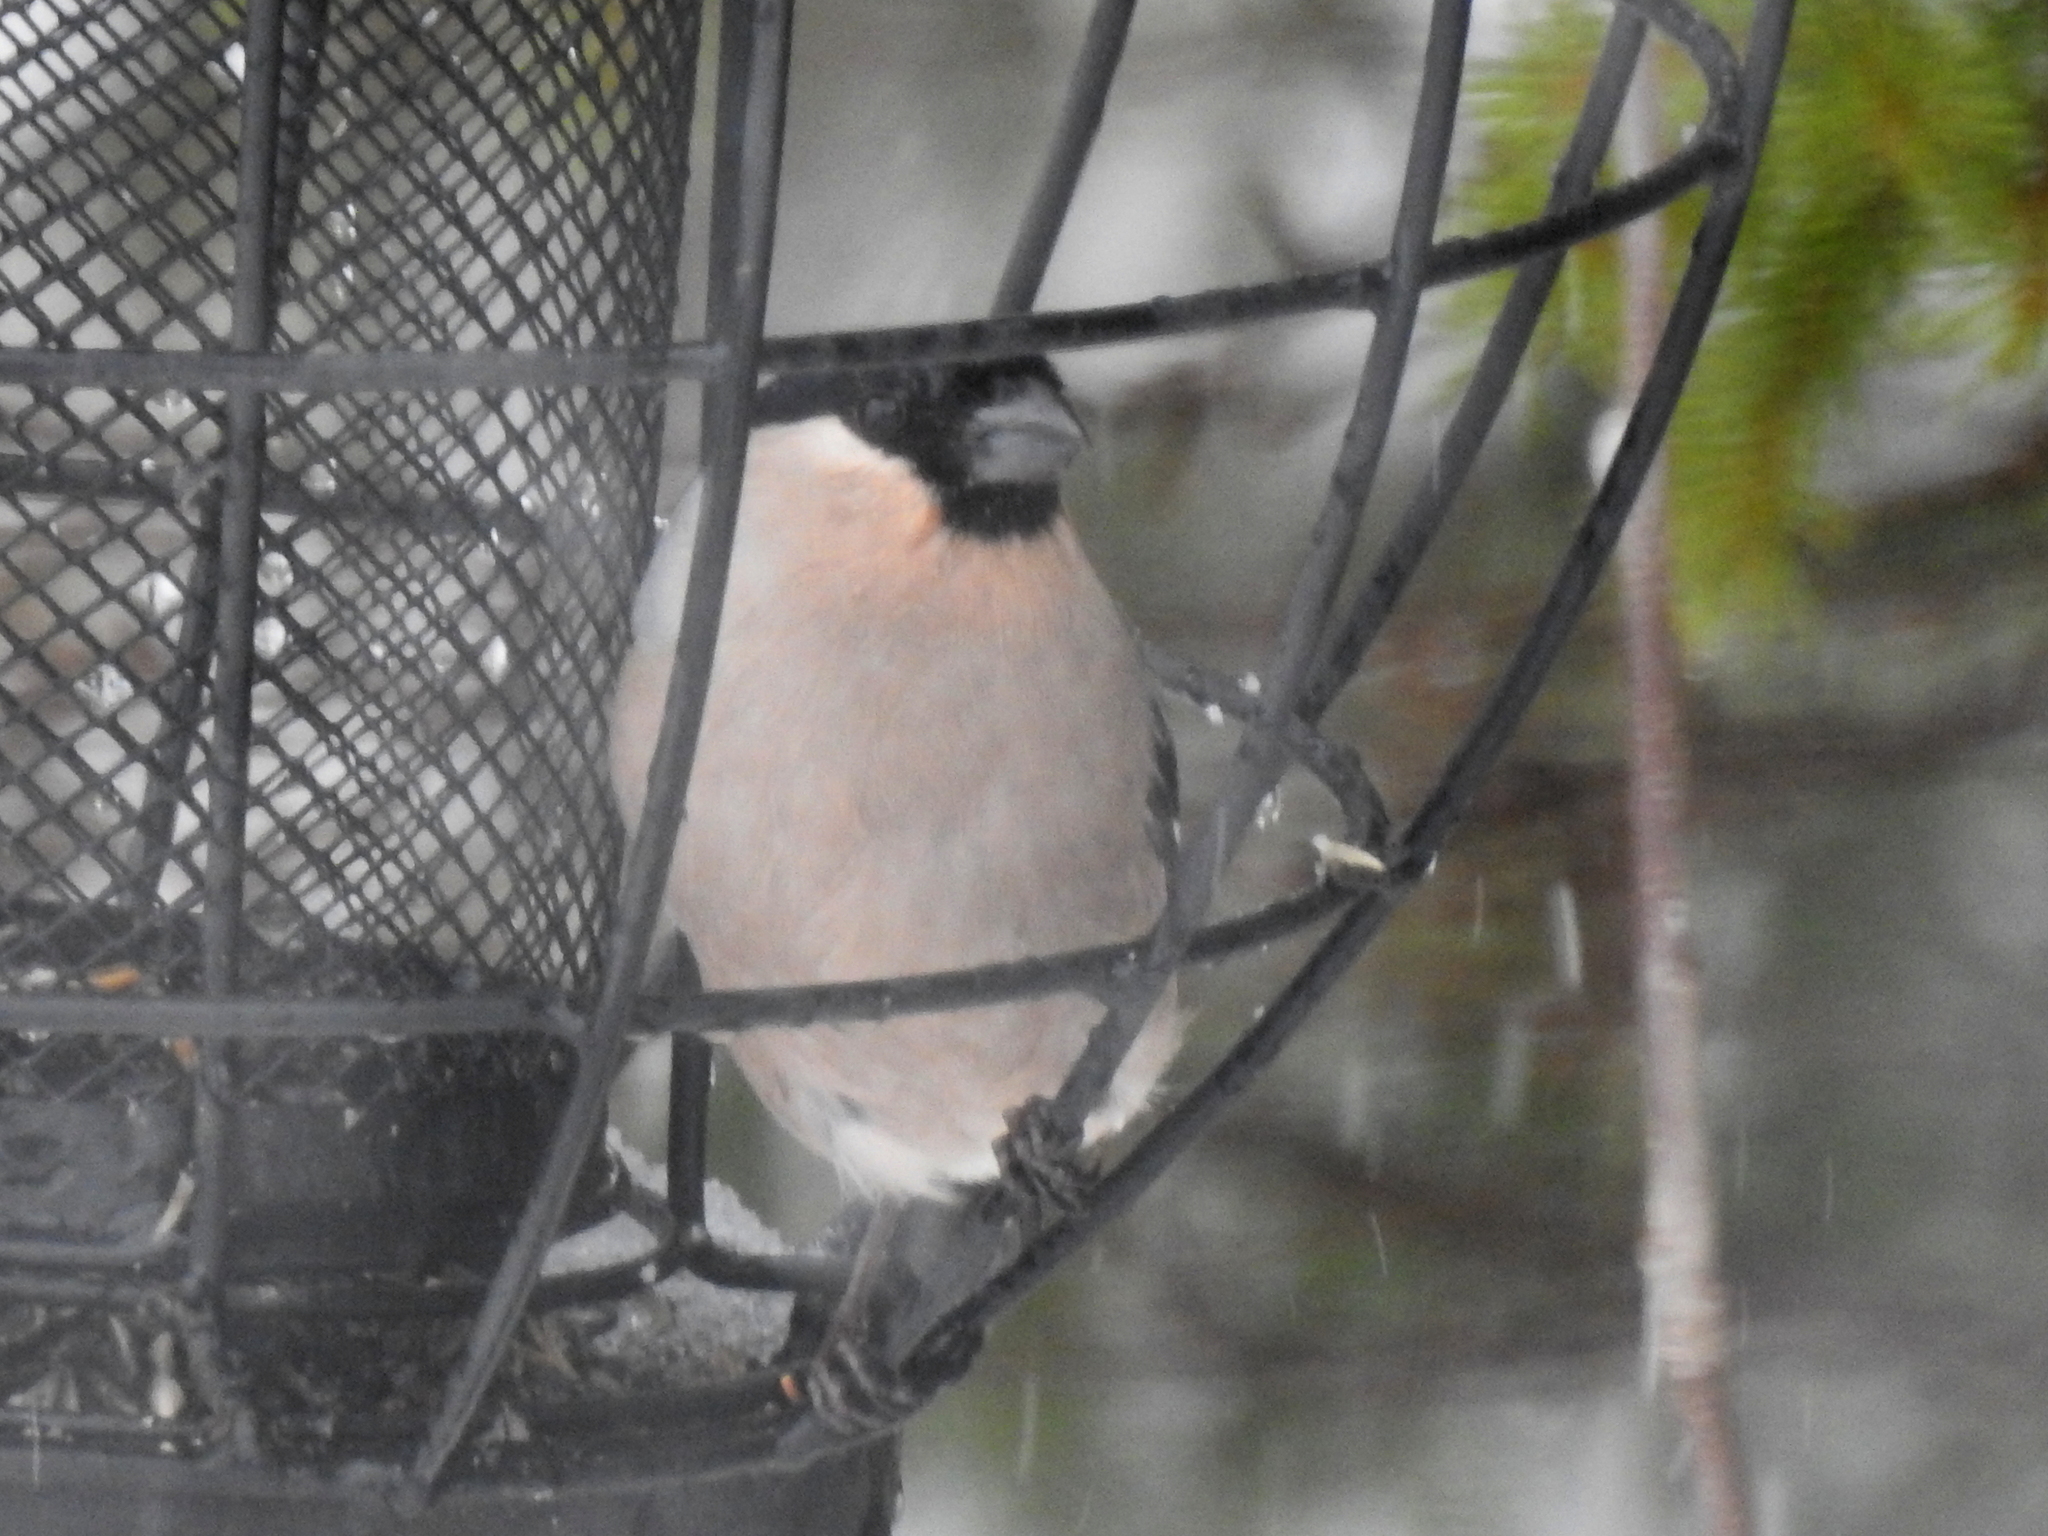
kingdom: Animalia
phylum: Chordata
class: Aves
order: Passeriformes
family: Fringillidae
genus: Pyrrhula
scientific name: Pyrrhula pyrrhula
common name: Eurasian bullfinch
